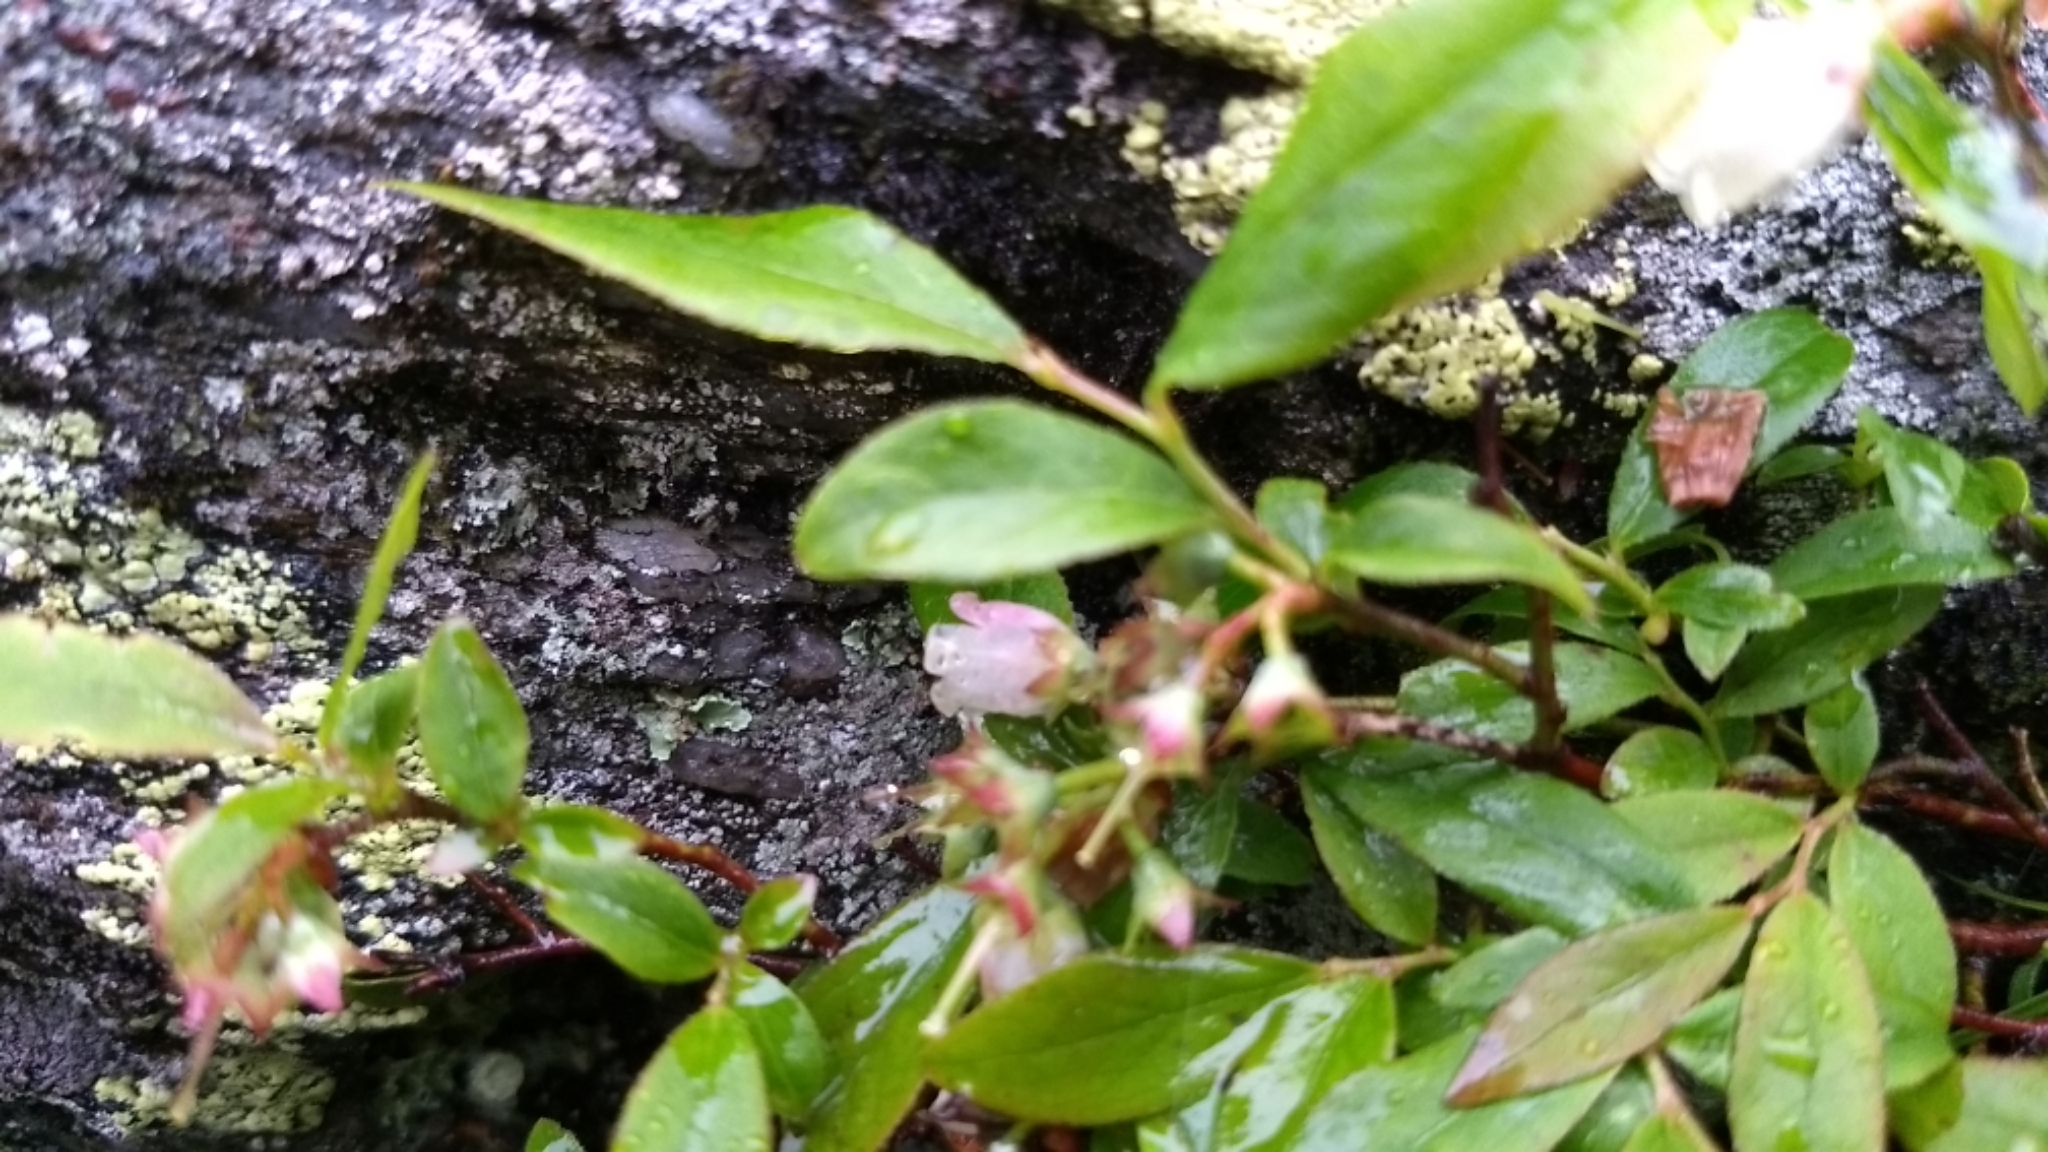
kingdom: Plantae
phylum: Tracheophyta
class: Magnoliopsida
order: Ericales
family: Ericaceae
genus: Vaccinium
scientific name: Vaccinium angustifolium
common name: Early lowbush blueberry
